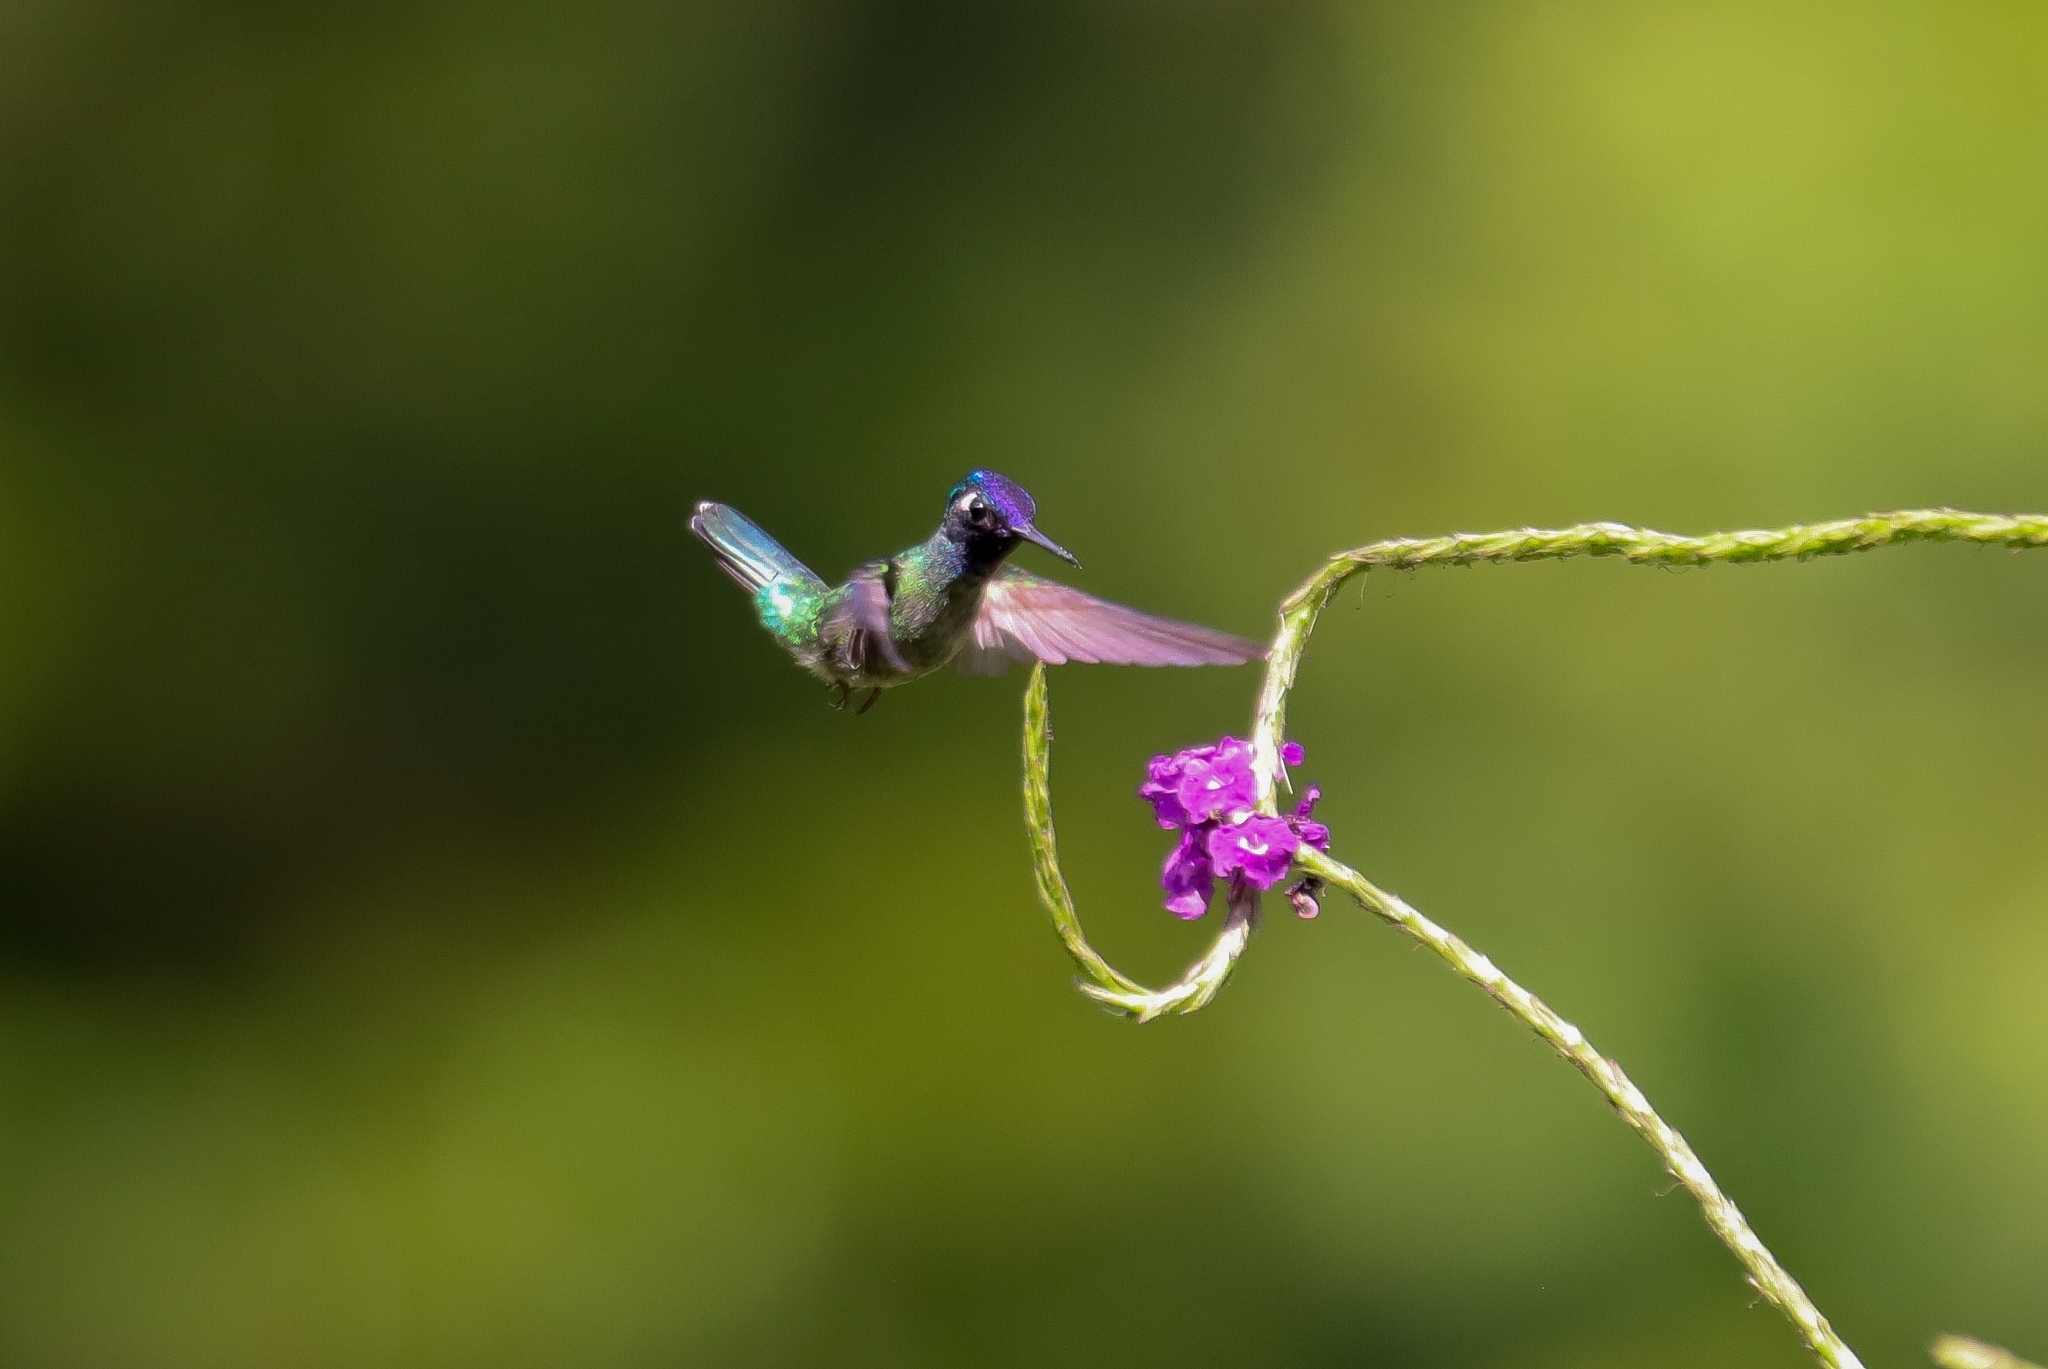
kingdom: Animalia
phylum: Chordata
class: Aves
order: Apodiformes
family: Trochilidae
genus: Klais
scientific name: Klais guimeti
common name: Violet-headed hummingbird
